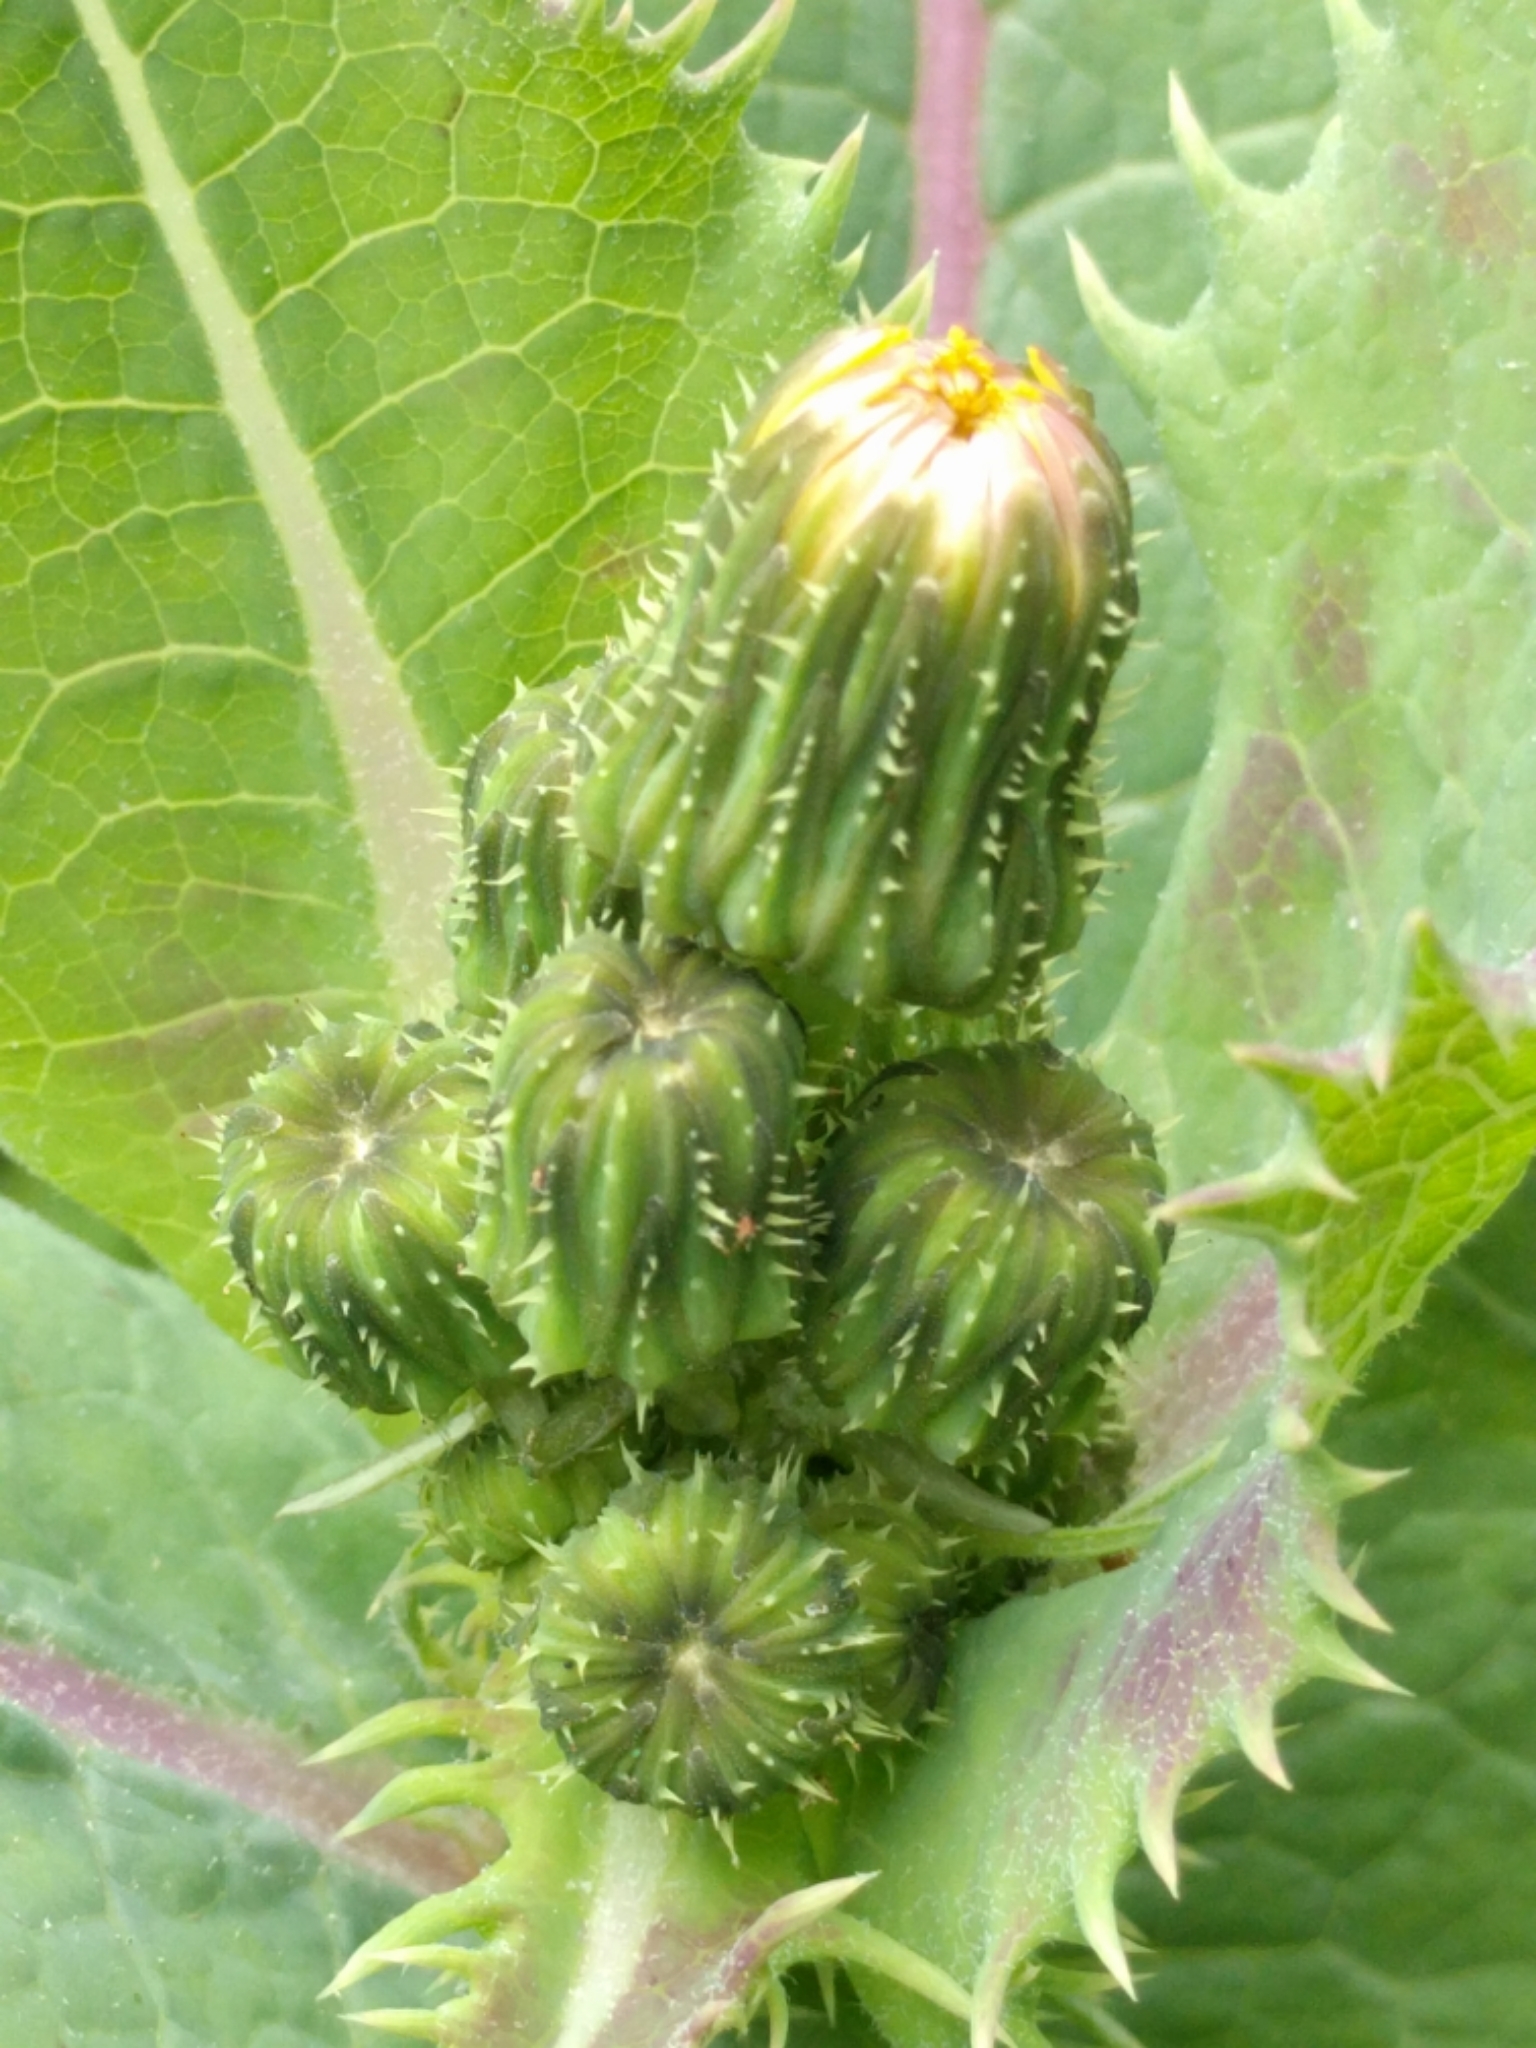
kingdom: Plantae
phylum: Tracheophyta
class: Magnoliopsida
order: Asterales
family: Asteraceae
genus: Sonchus
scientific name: Sonchus asper
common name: Prickly sow-thistle
